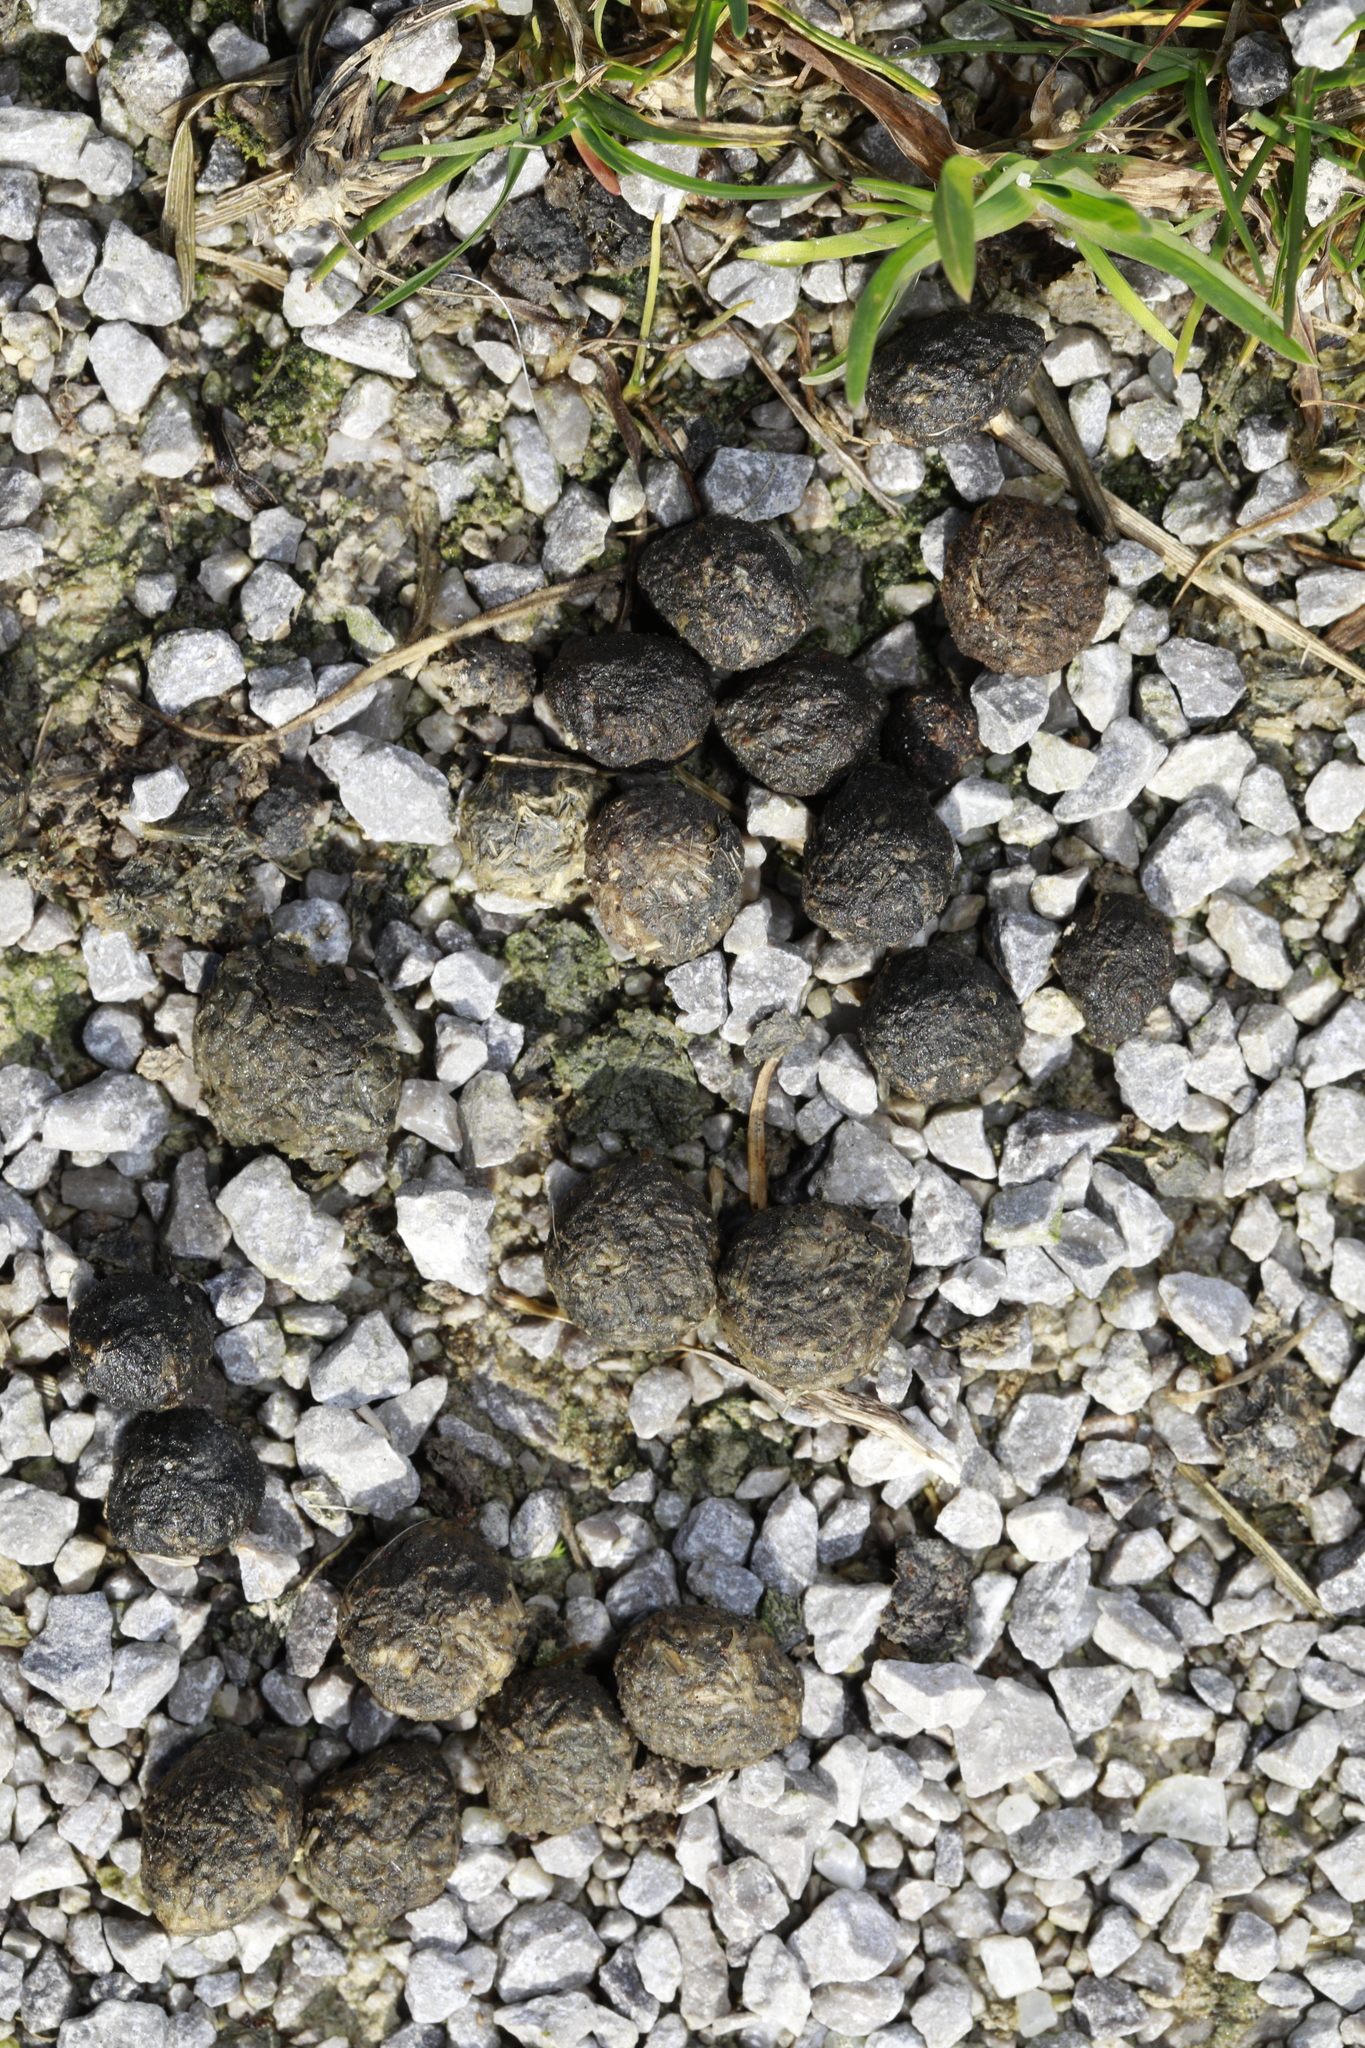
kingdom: Animalia
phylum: Chordata
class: Mammalia
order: Lagomorpha
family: Leporidae
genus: Oryctolagus
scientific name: Oryctolagus cuniculus
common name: European rabbit
